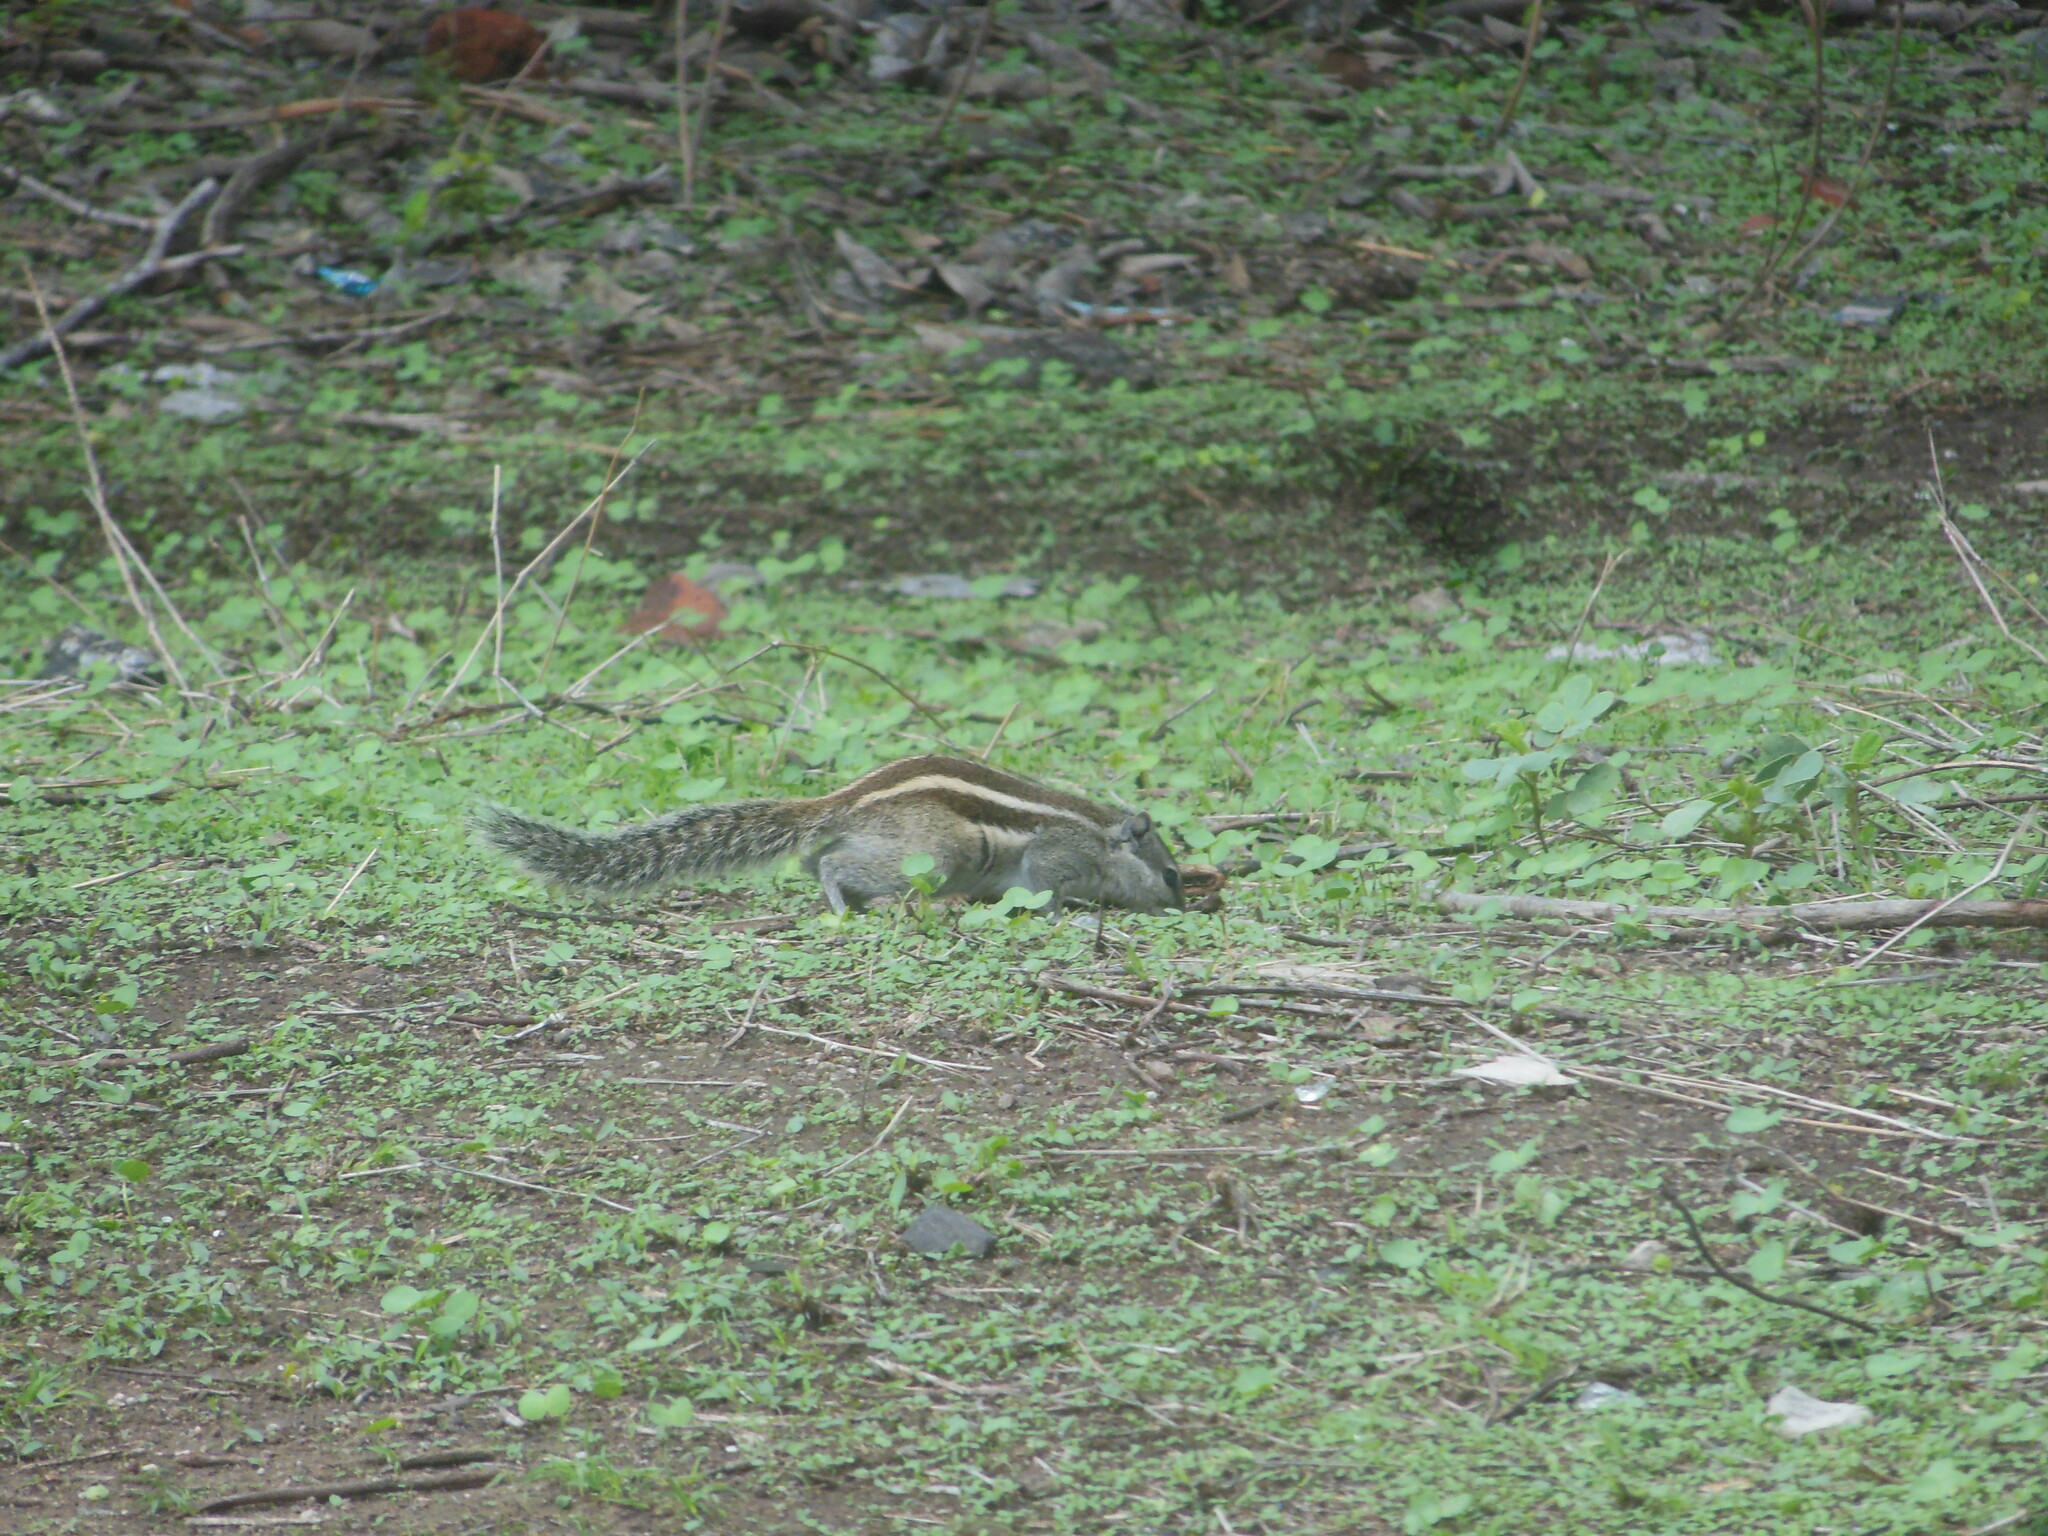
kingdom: Animalia
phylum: Chordata
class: Mammalia
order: Rodentia
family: Sciuridae
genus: Funambulus
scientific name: Funambulus pennantii
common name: Northern palm squirrel
